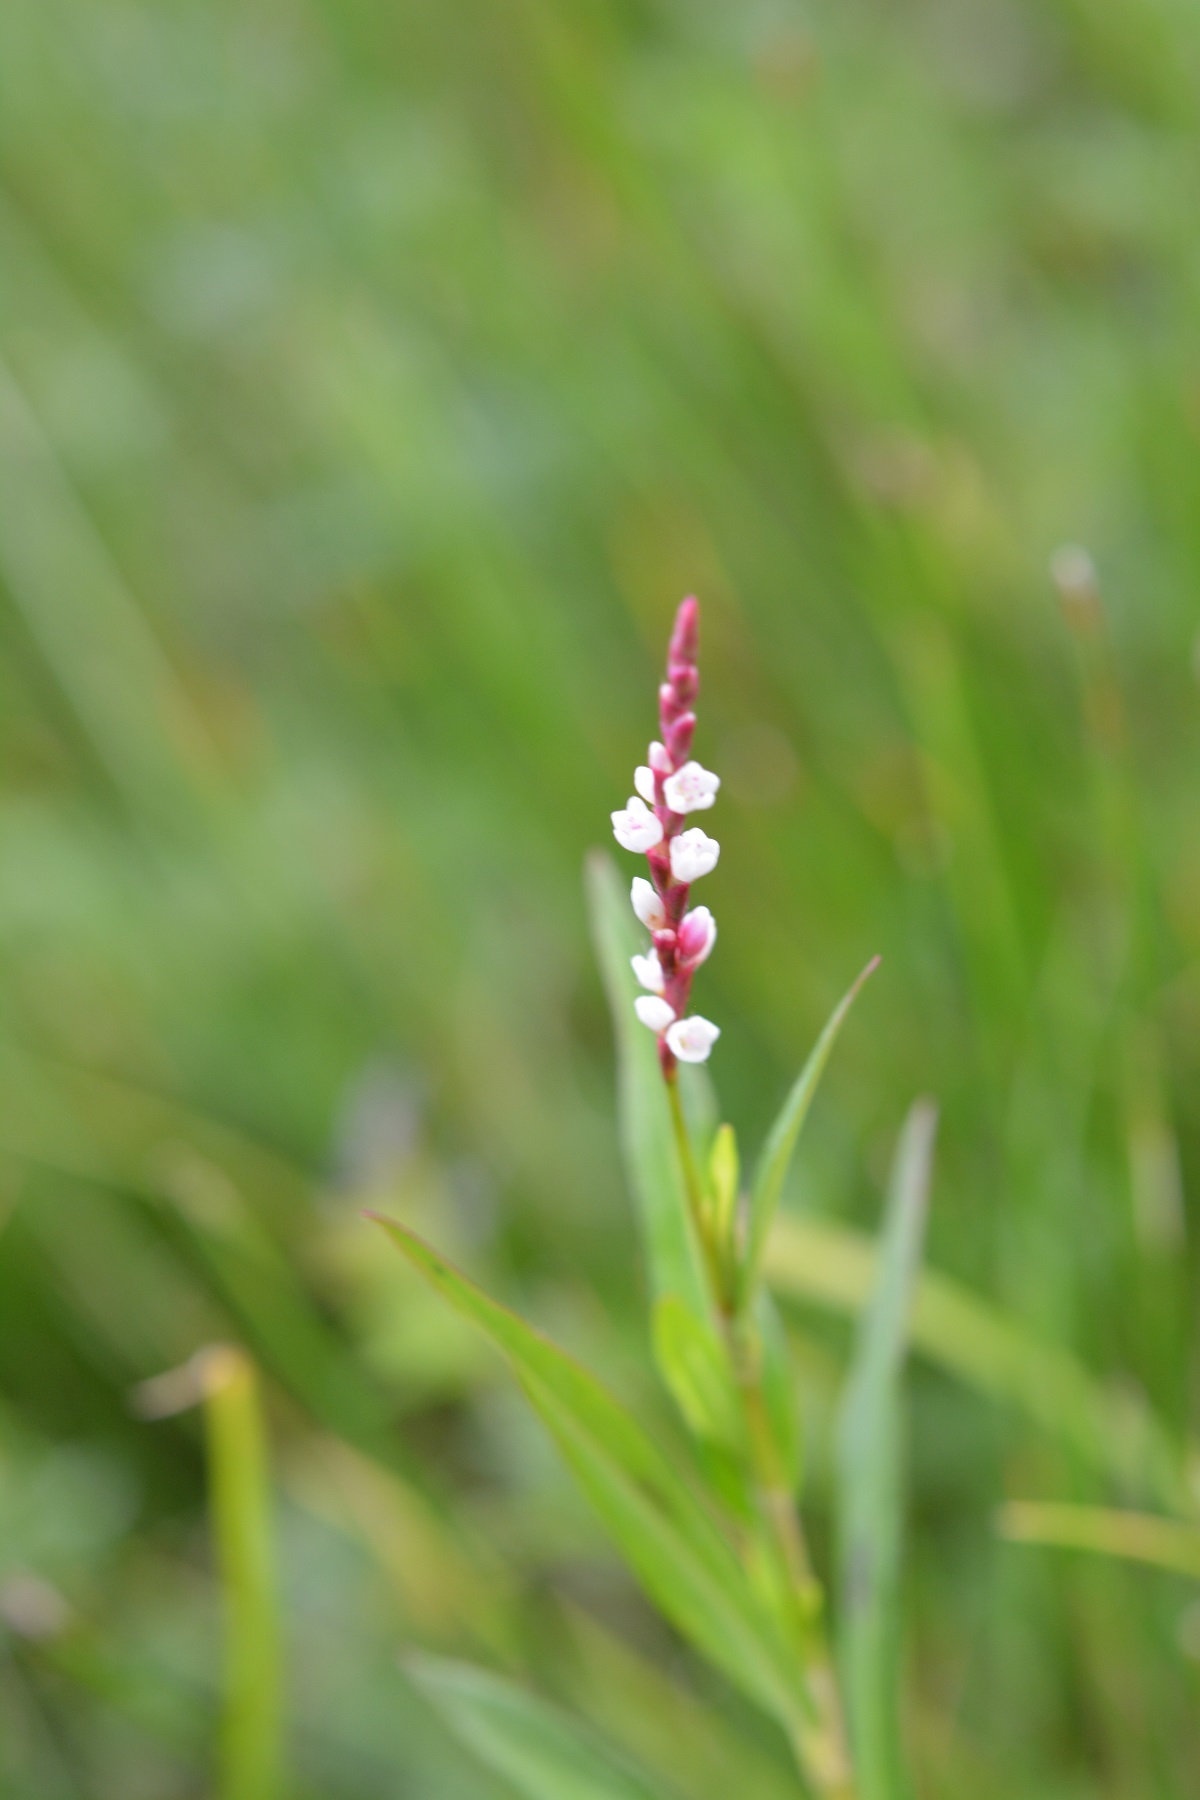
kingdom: Plantae
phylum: Tracheophyta
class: Magnoliopsida
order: Caryophyllales
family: Polygonaceae
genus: Persicaria
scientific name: Persicaria hydropiperoides
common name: Swamp smartweed
